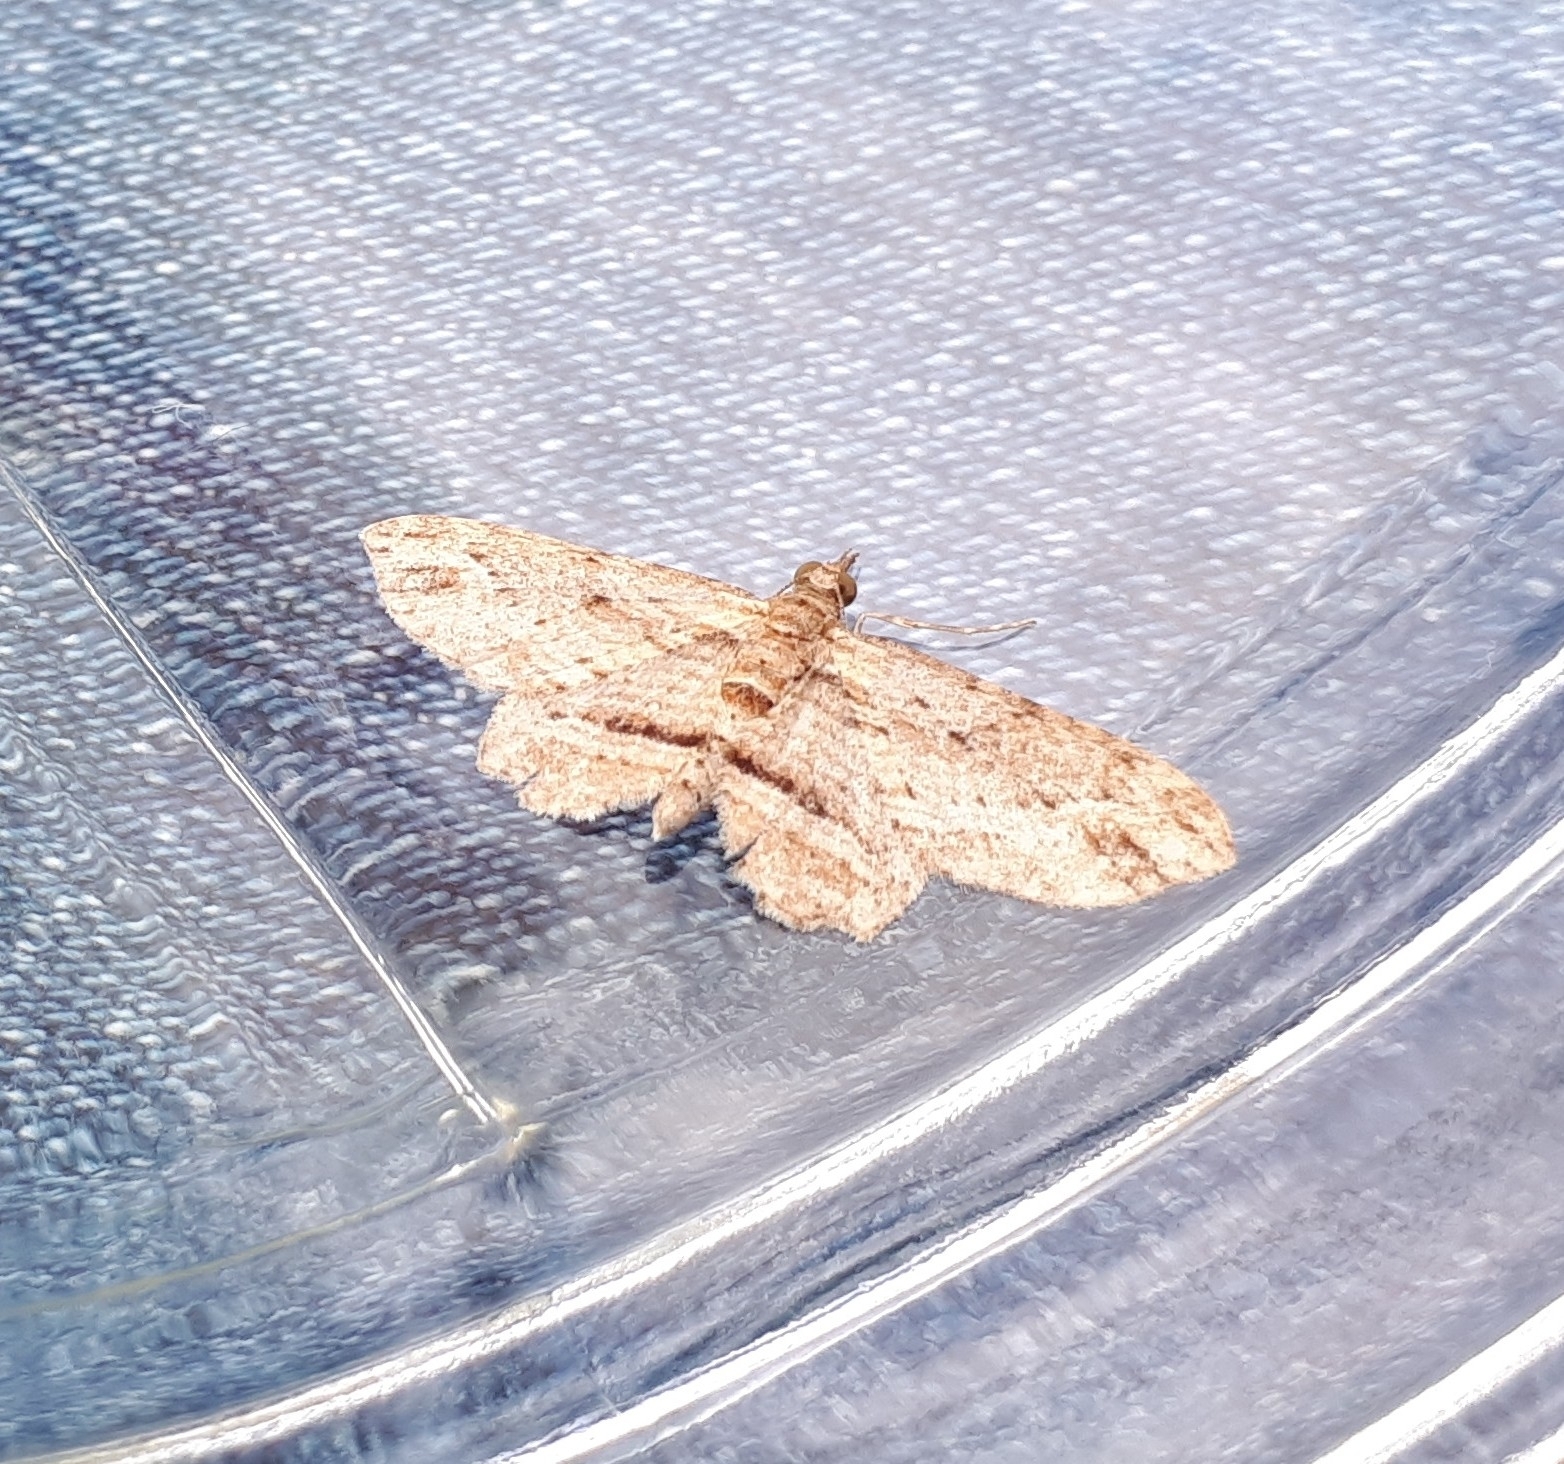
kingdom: Animalia
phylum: Arthropoda
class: Insecta
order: Lepidoptera
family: Geometridae
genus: Chloroclystis
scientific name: Chloroclystis filata
